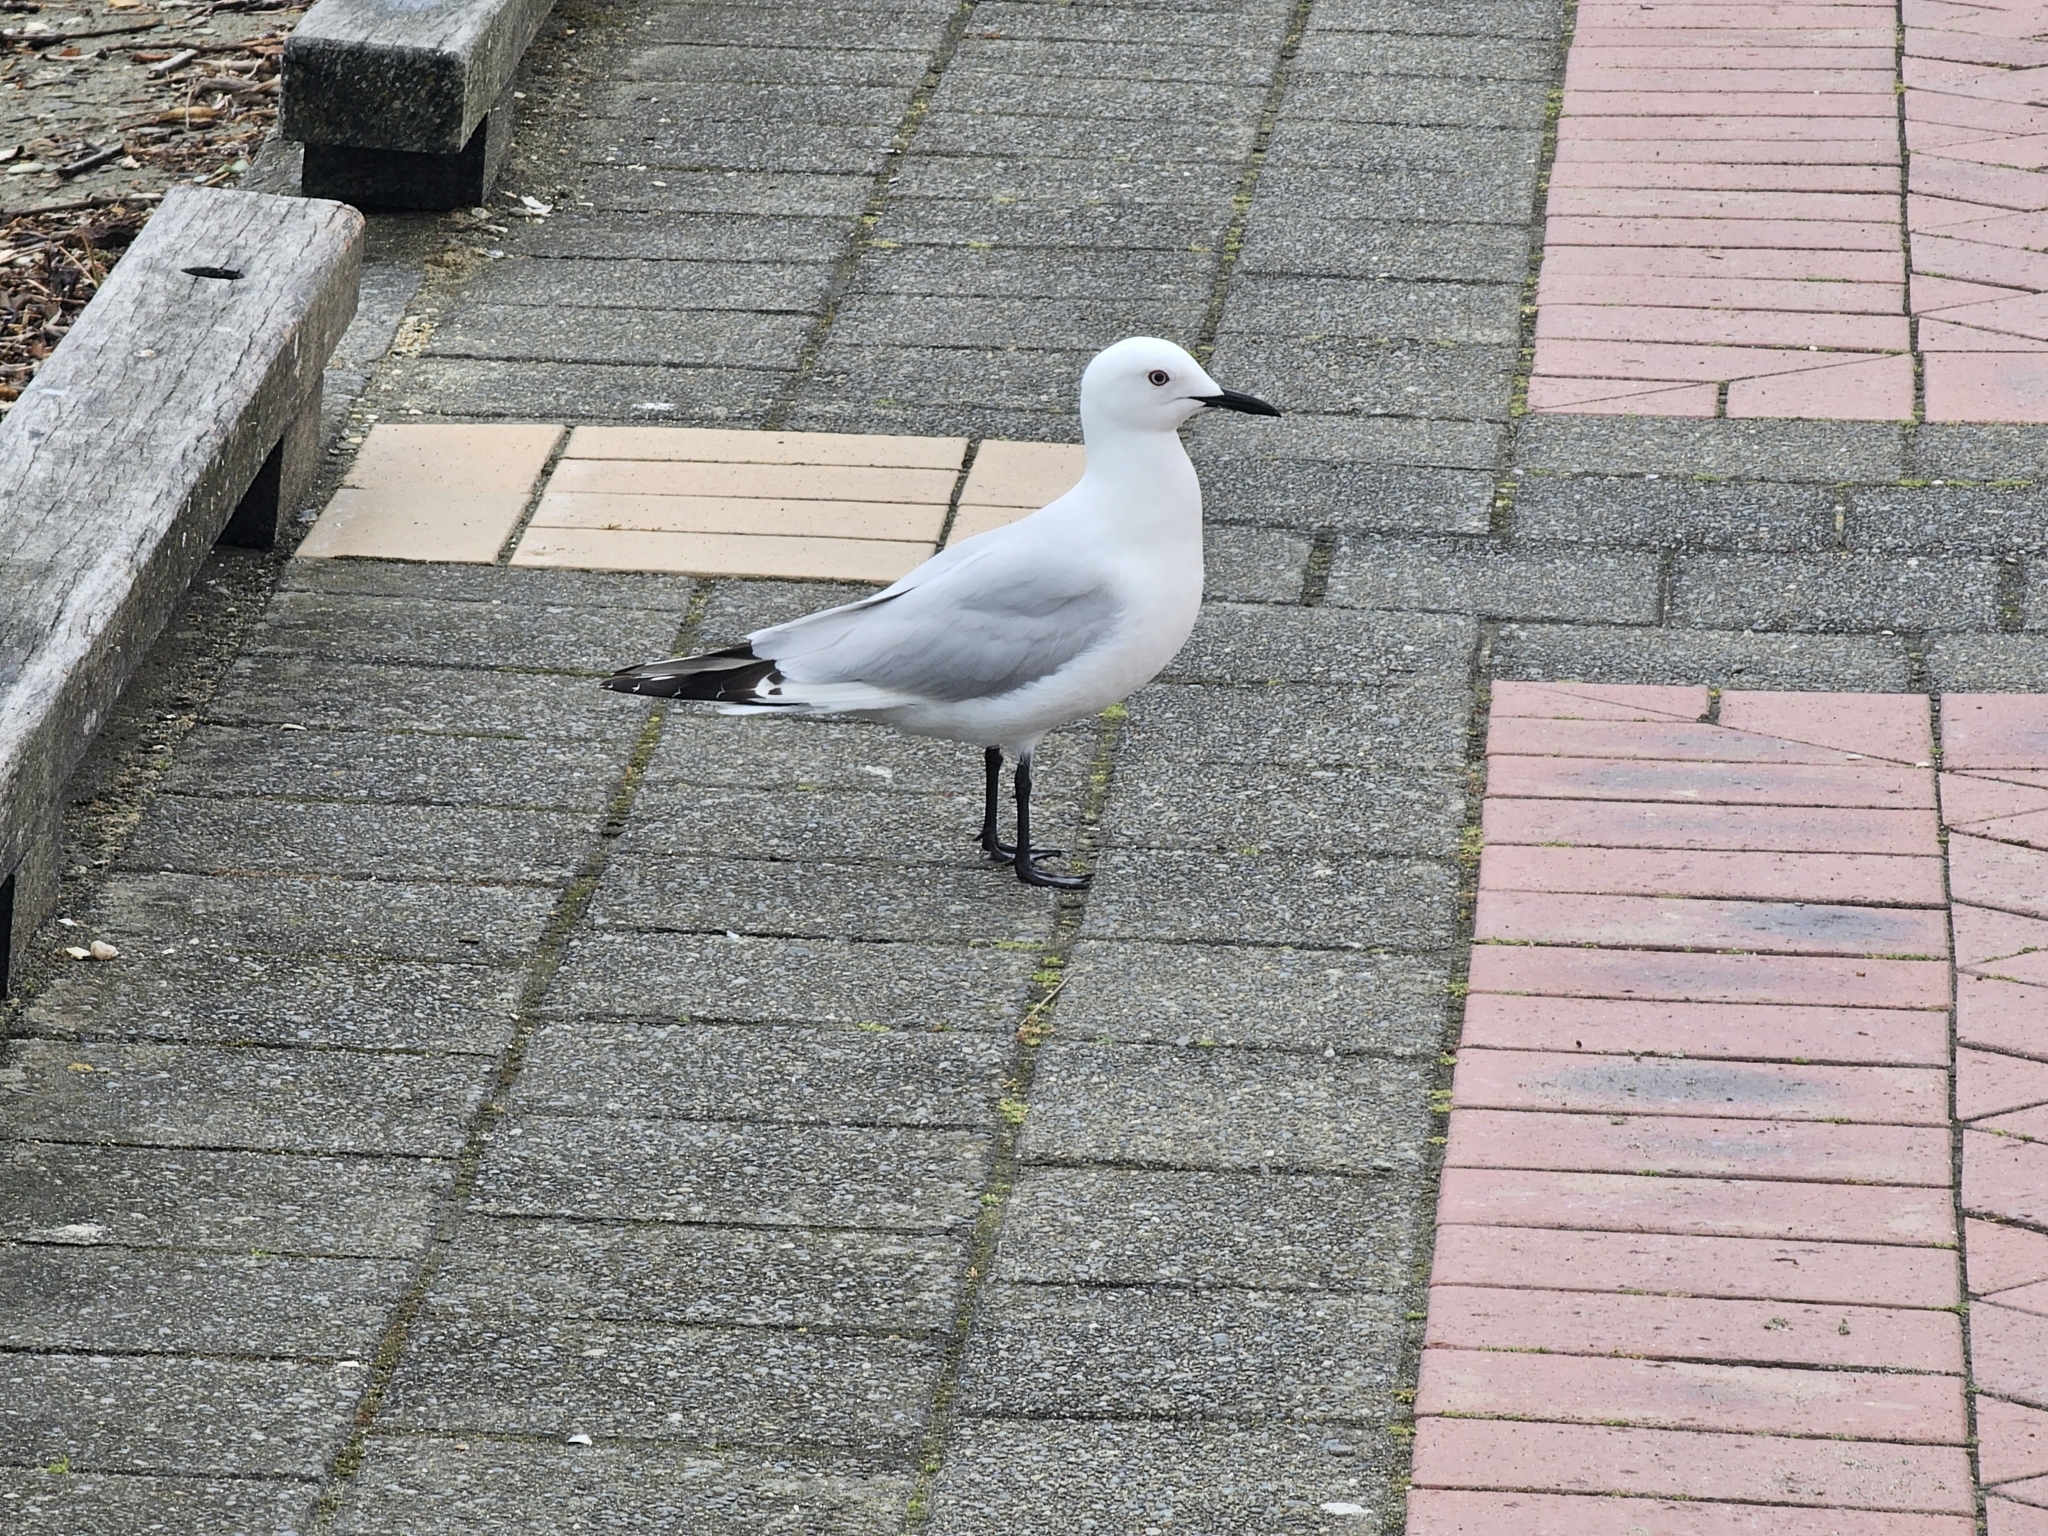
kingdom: Animalia
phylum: Chordata
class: Aves
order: Charadriiformes
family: Laridae
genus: Chroicocephalus
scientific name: Chroicocephalus bulleri
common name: Black-billed gull
